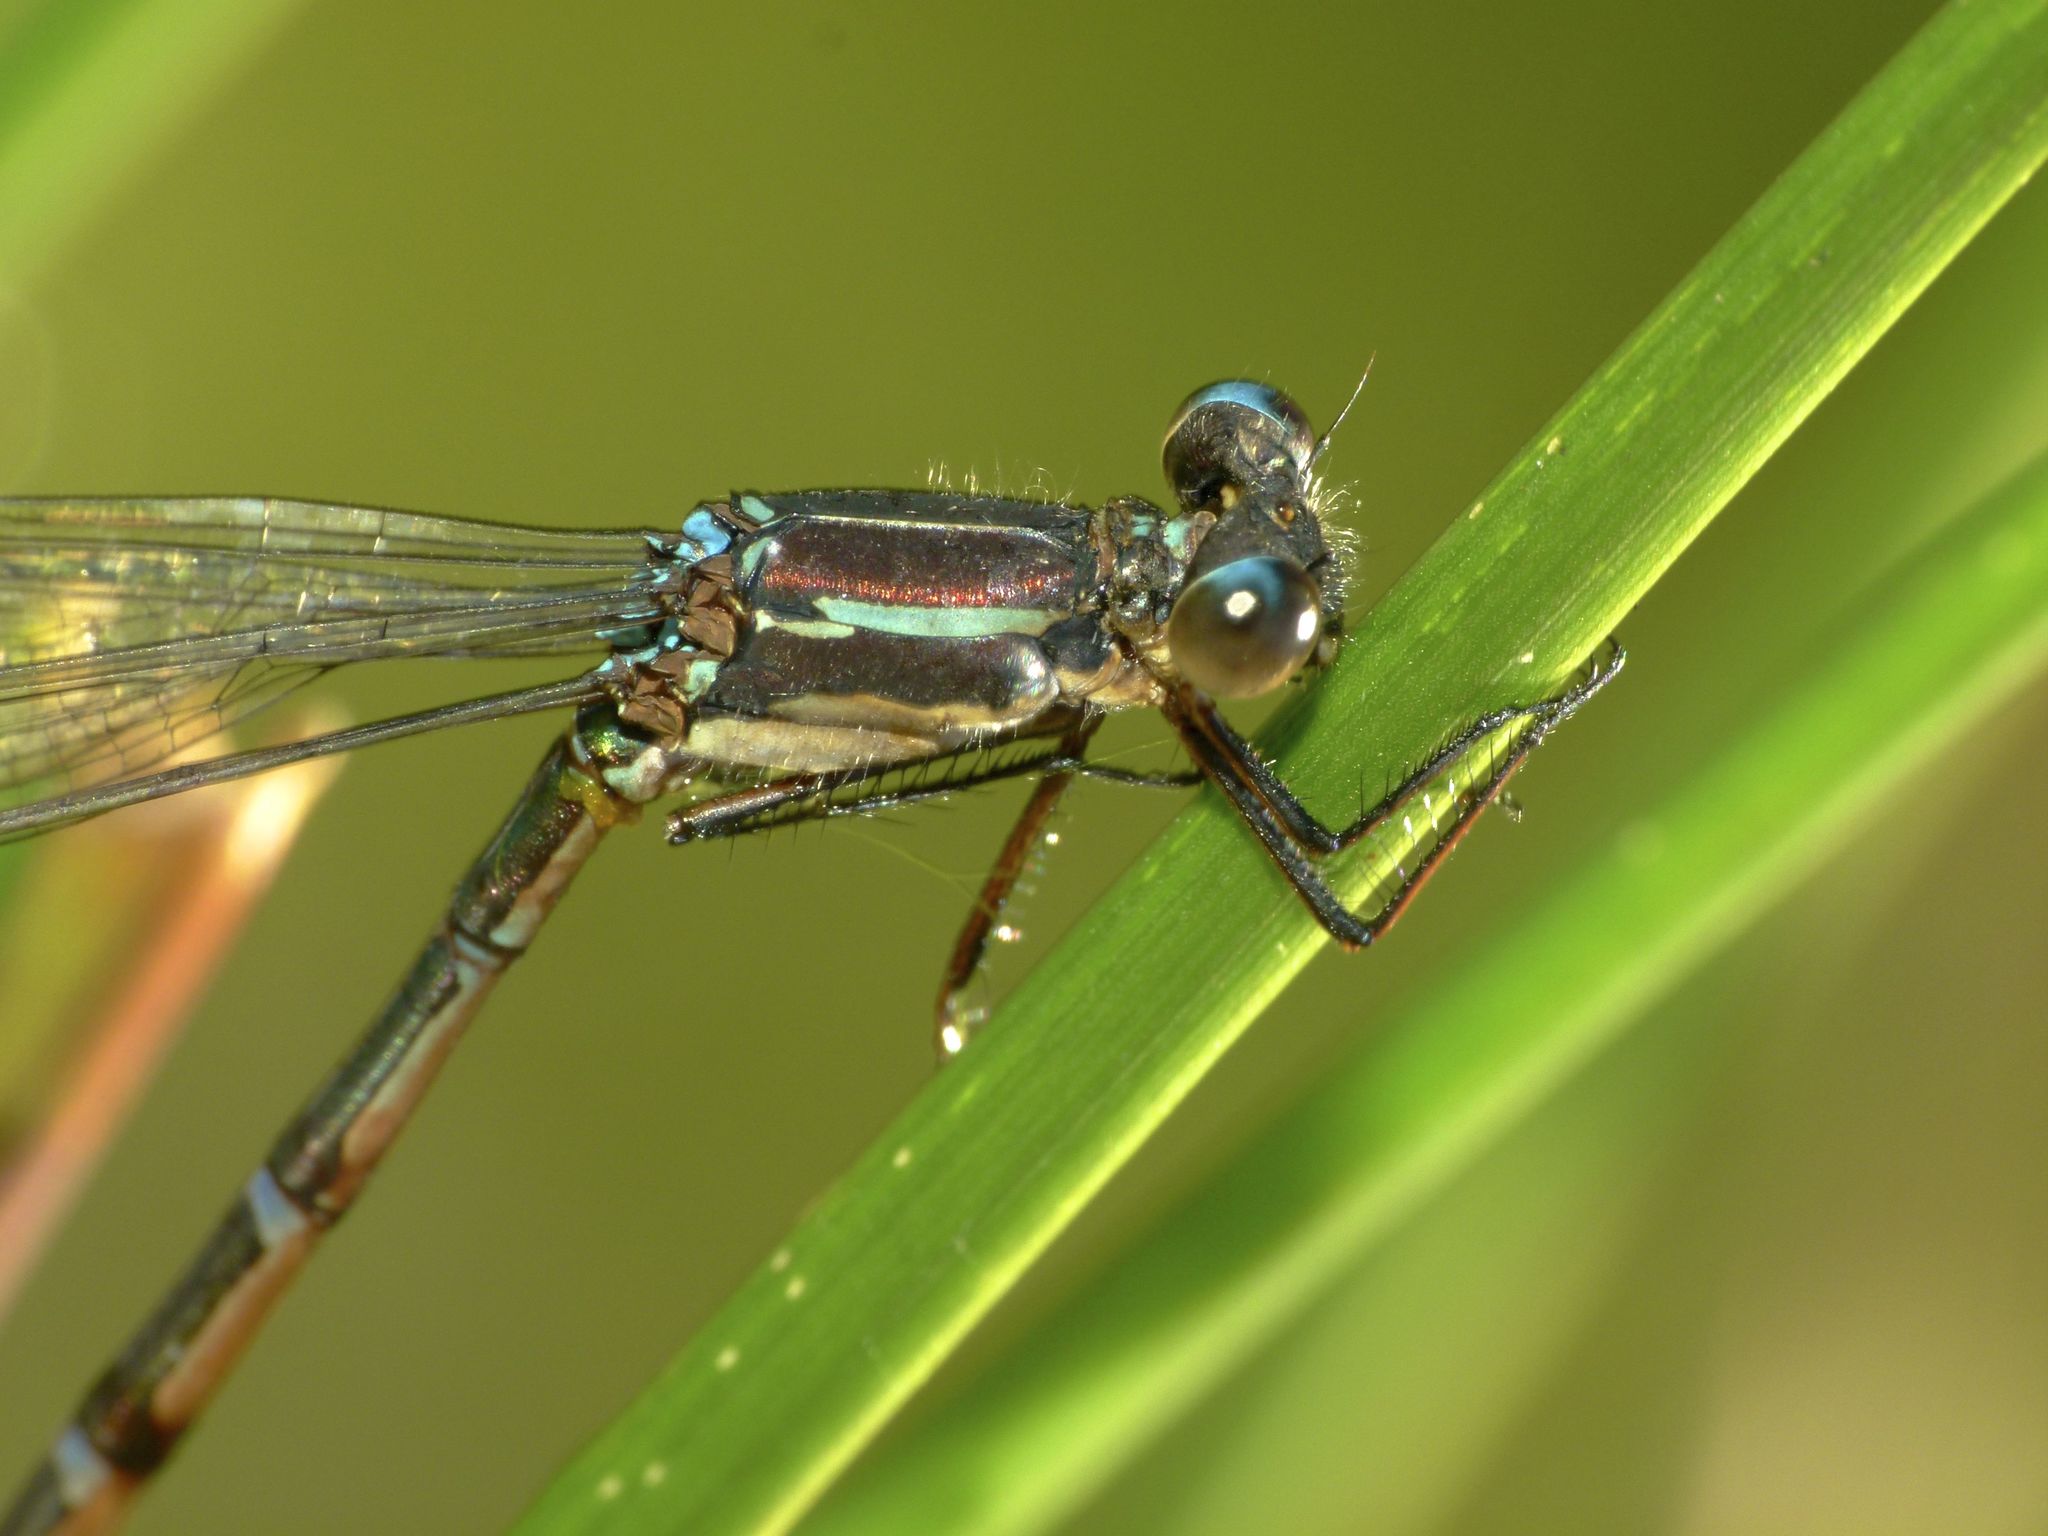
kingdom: Animalia
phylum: Arthropoda
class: Insecta
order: Odonata
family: Lestidae
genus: Austrolestes
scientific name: Austrolestes colensonis
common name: Blue damselfly
